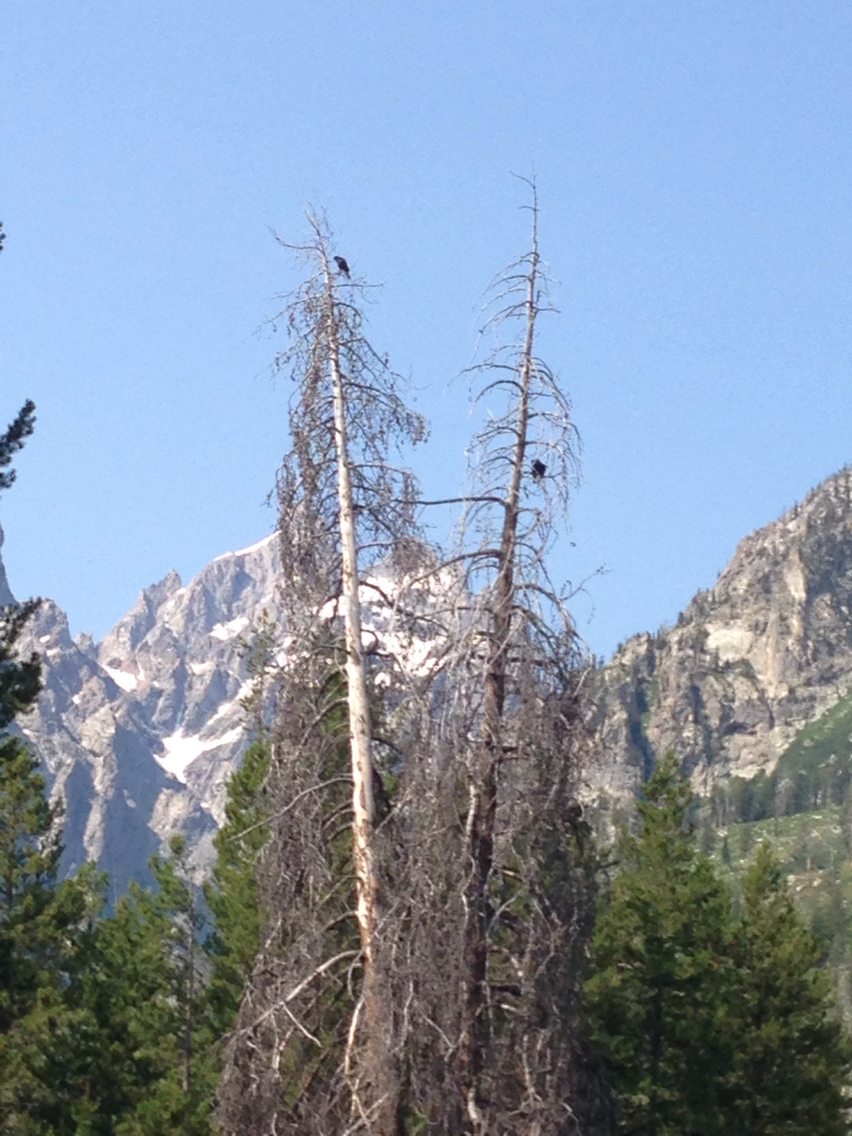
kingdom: Animalia
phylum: Chordata
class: Aves
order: Passeriformes
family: Corvidae
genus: Corvus
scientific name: Corvus corax
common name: Common raven
